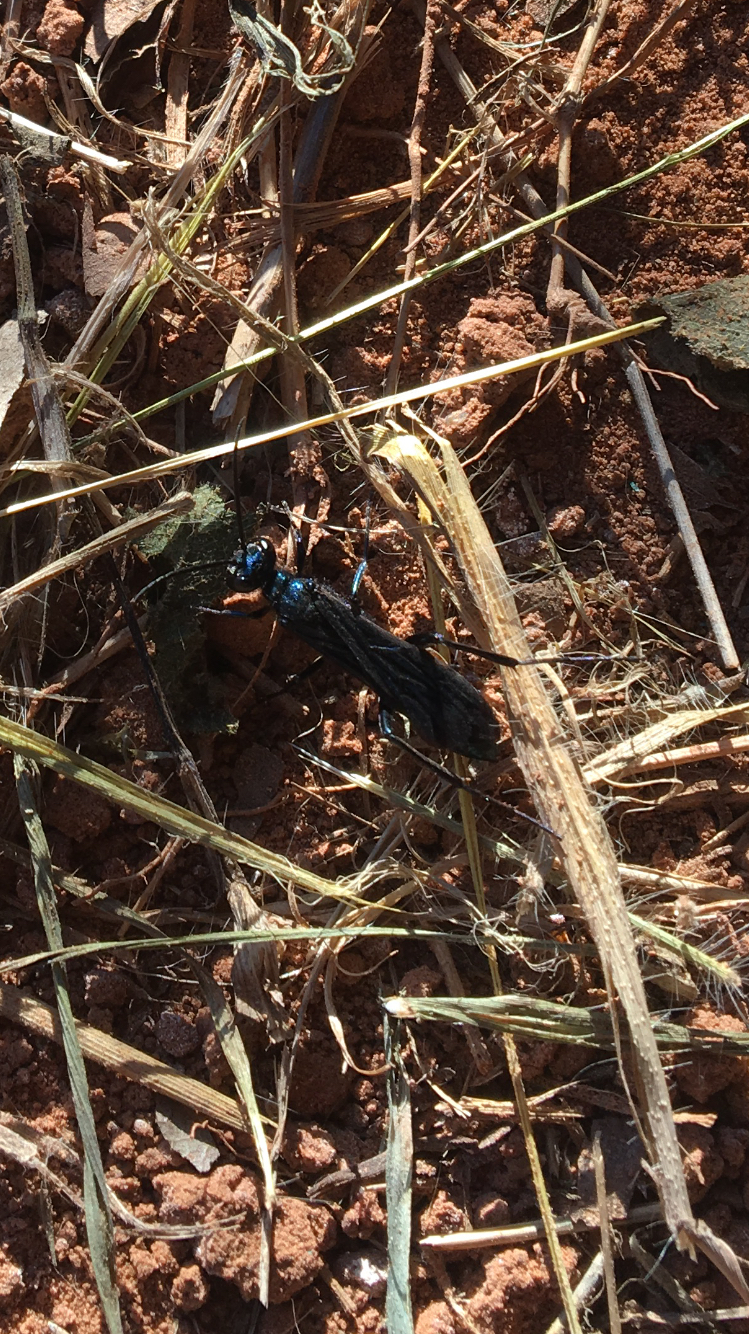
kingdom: Animalia
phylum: Arthropoda
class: Insecta
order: Hymenoptera
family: Sphecidae
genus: Chalybion
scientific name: Chalybion californicum
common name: Mud dauber
